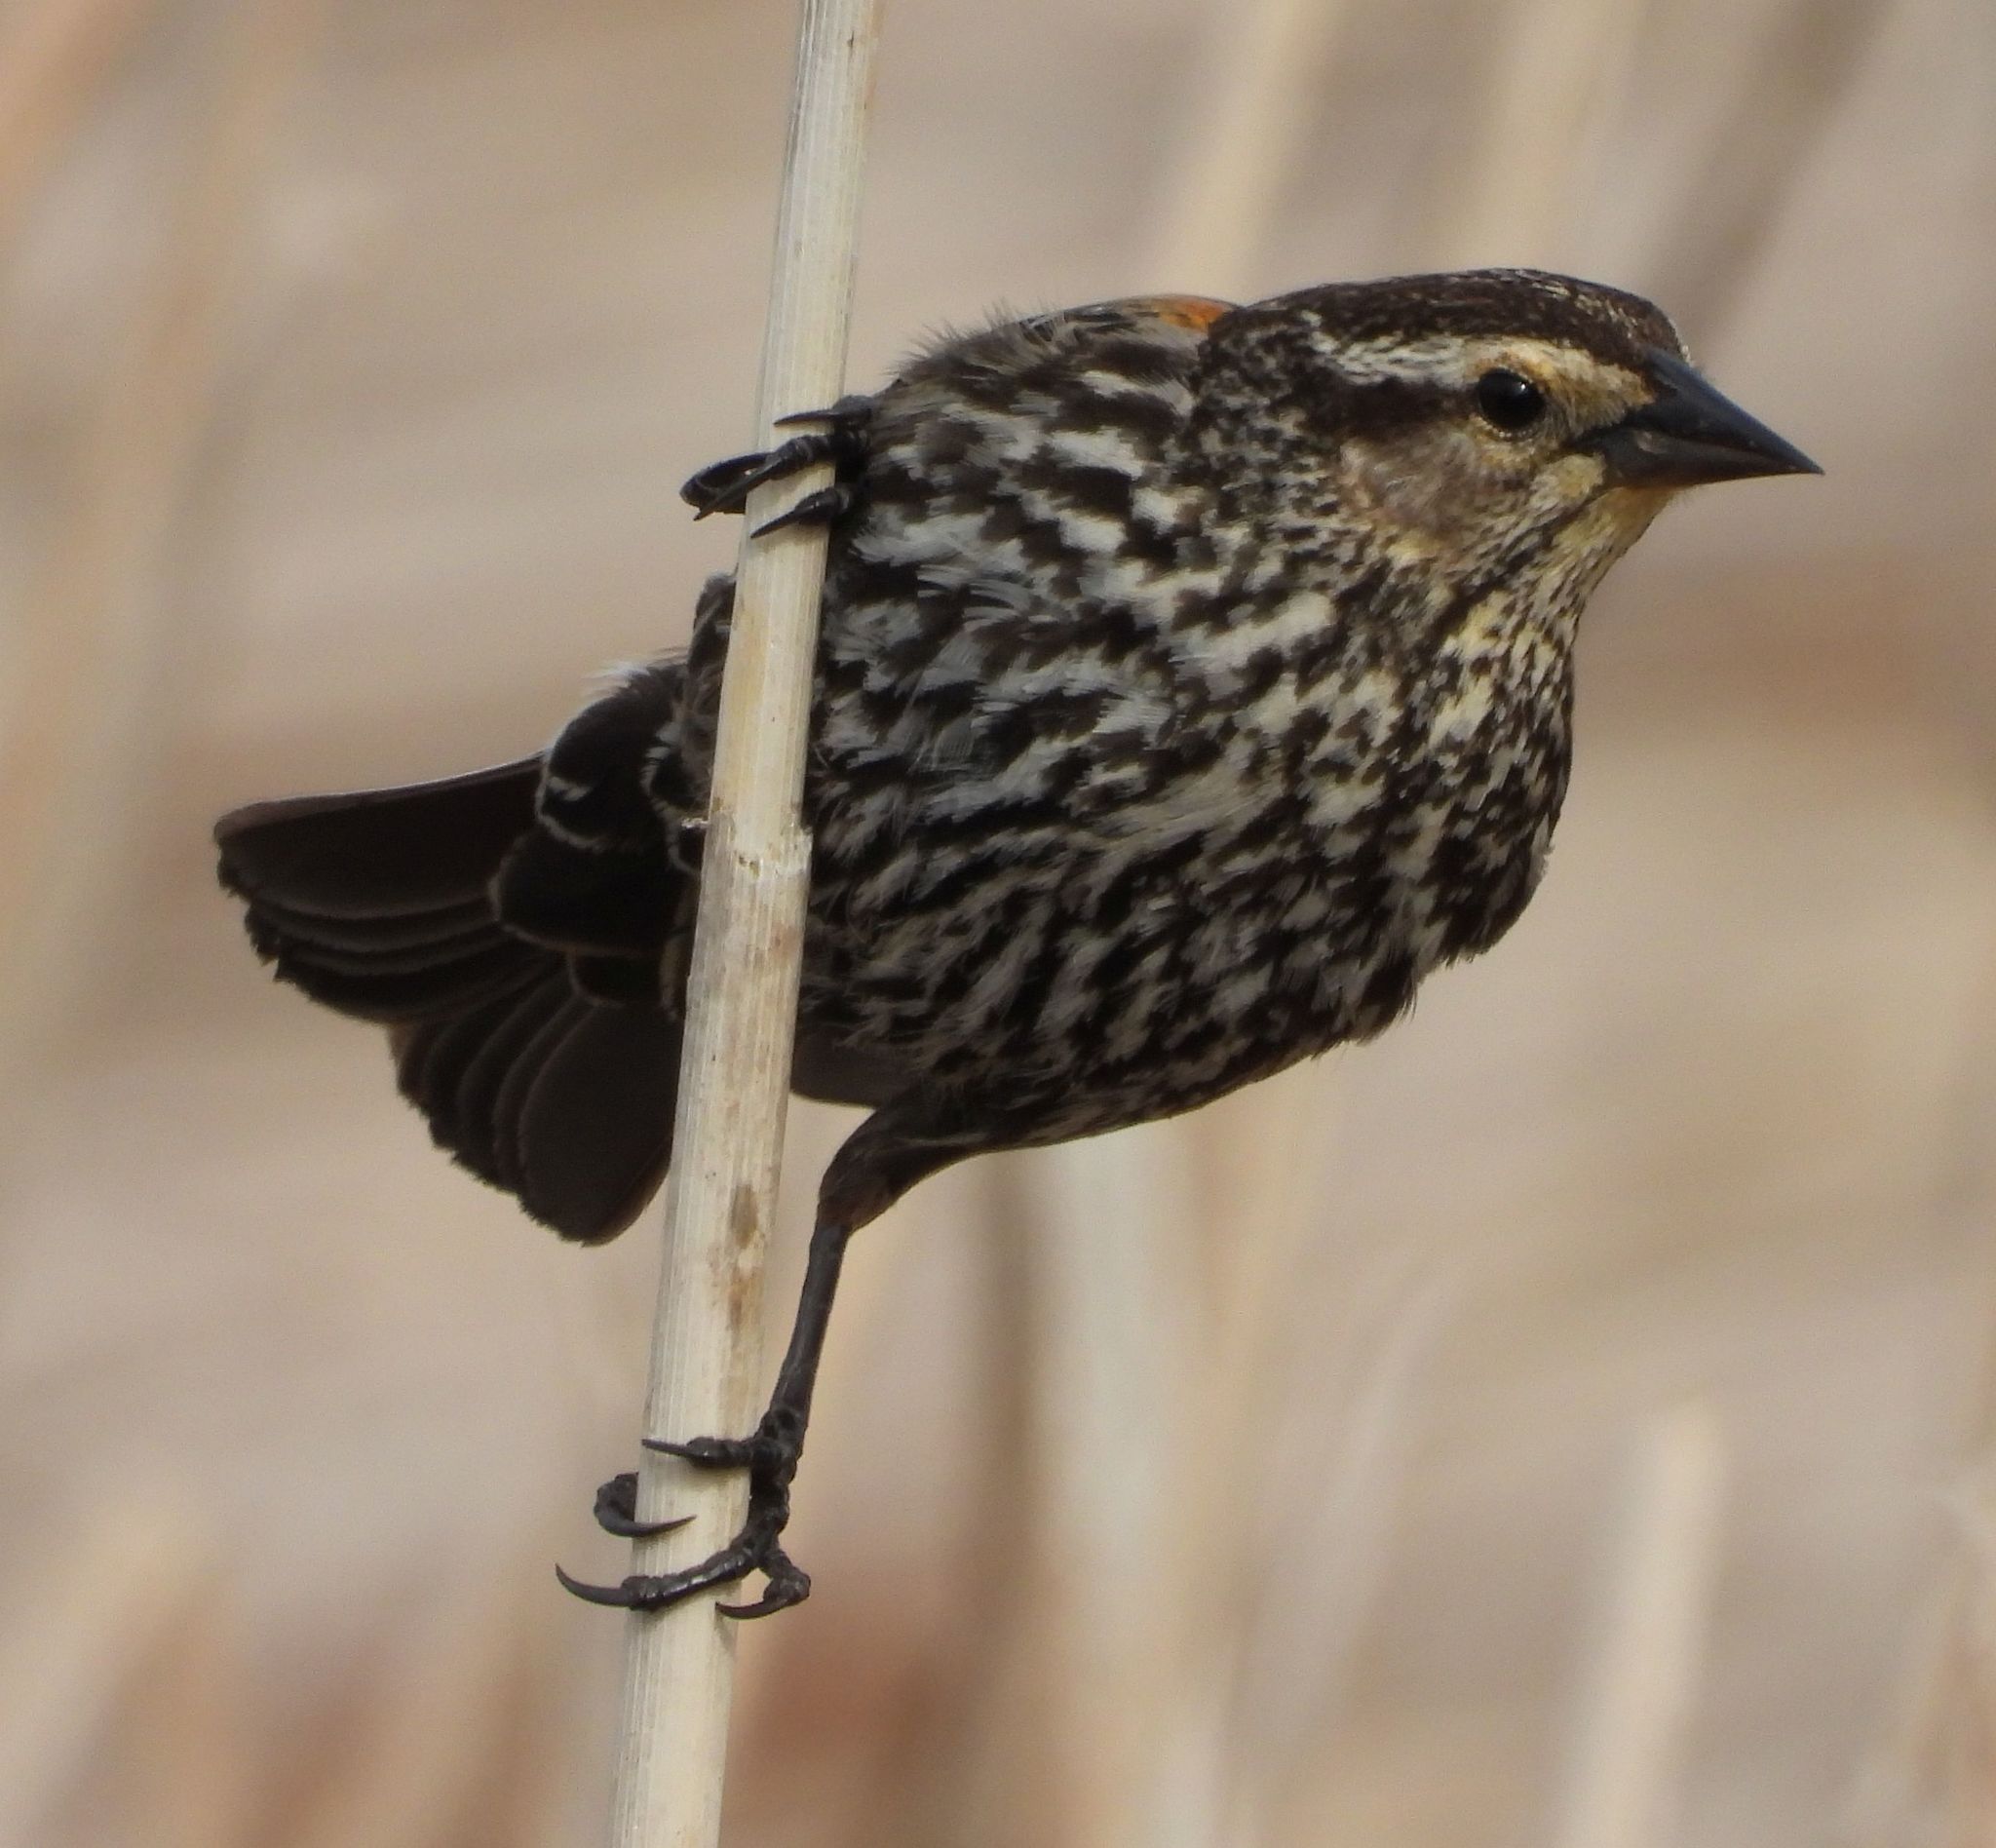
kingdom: Animalia
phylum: Chordata
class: Aves
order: Passeriformes
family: Icteridae
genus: Agelaius
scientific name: Agelaius phoeniceus
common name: Red-winged blackbird
